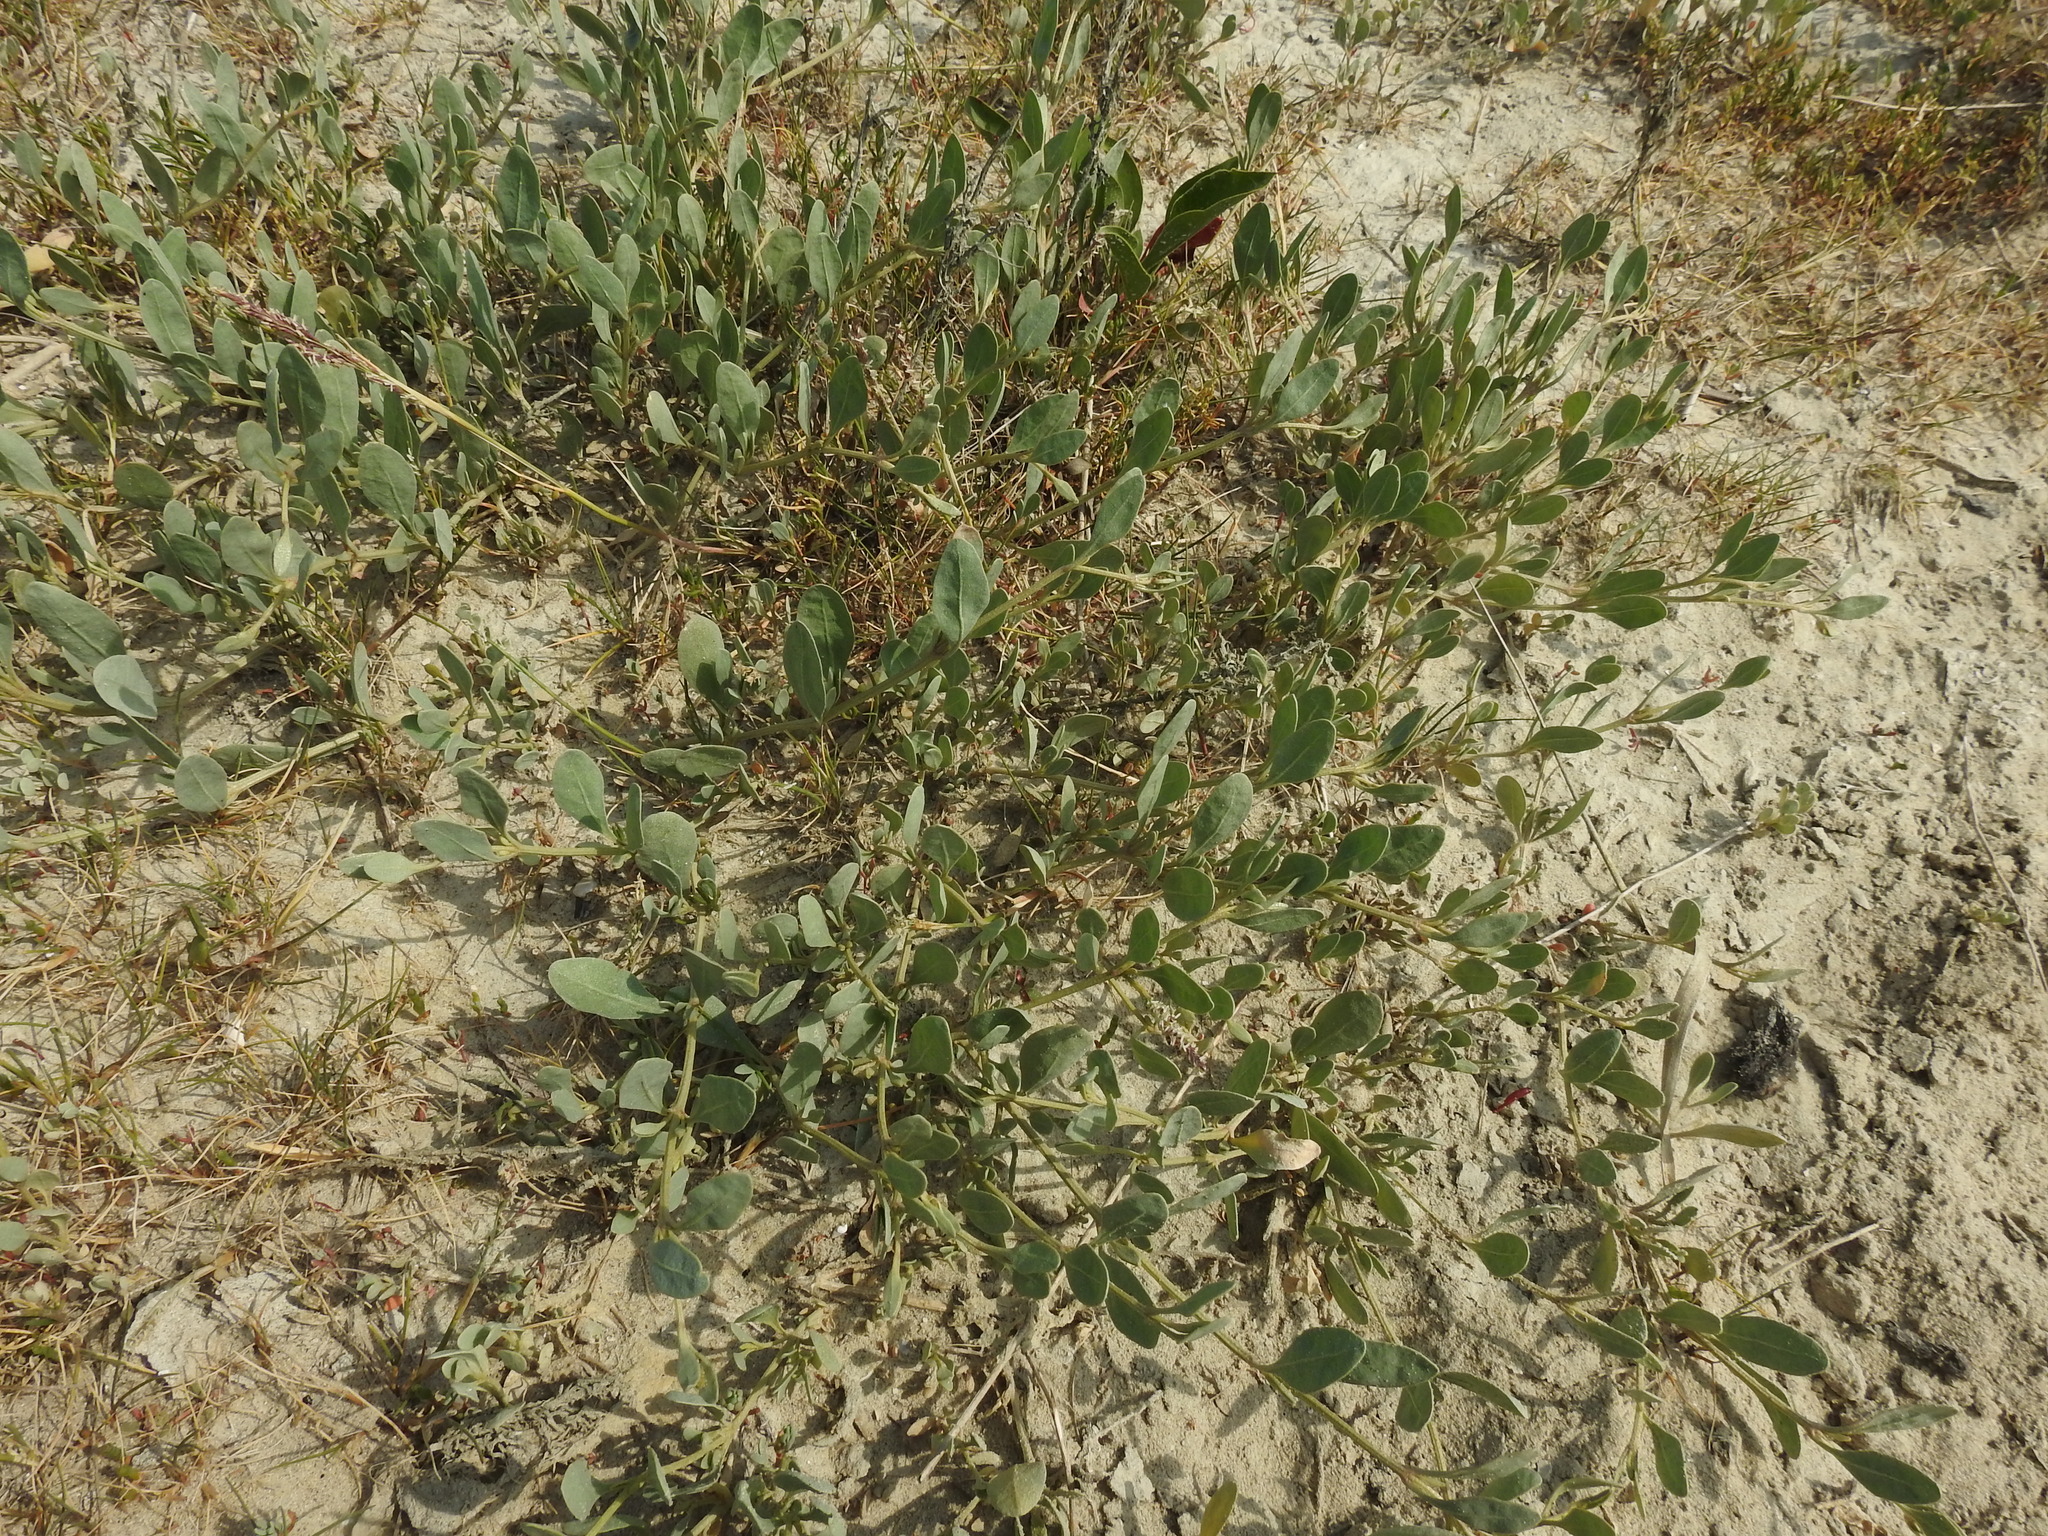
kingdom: Plantae
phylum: Tracheophyta
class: Magnoliopsida
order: Caryophyllales
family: Amaranthaceae
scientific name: Amaranthaceae
